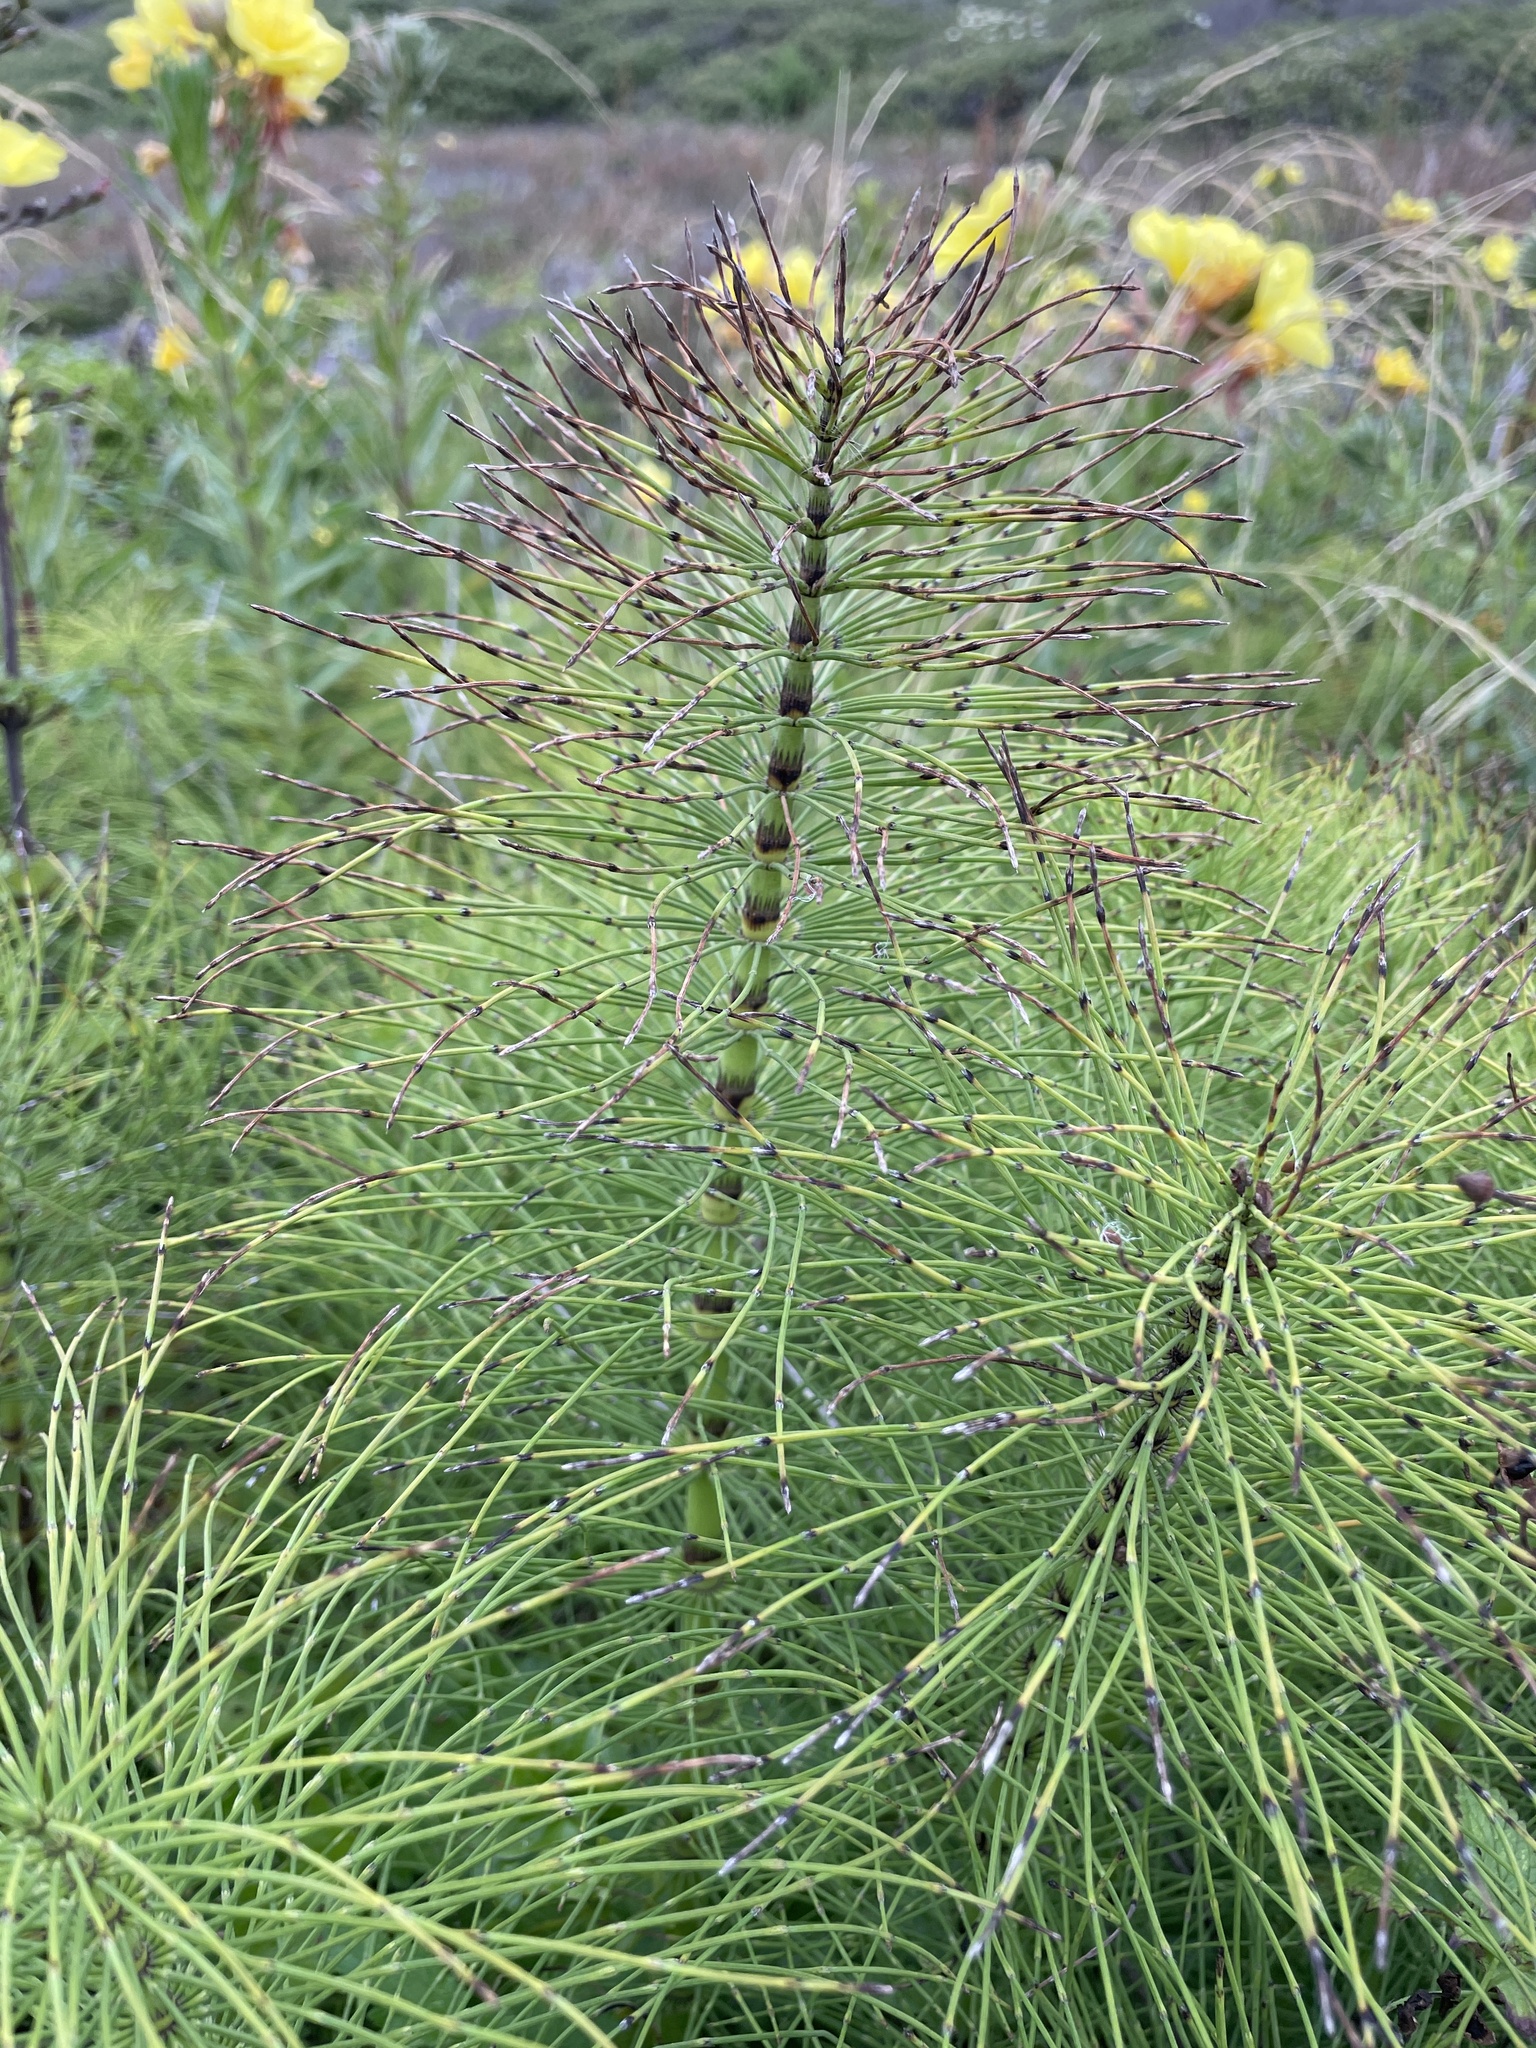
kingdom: Plantae
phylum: Tracheophyta
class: Polypodiopsida
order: Equisetales
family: Equisetaceae
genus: Equisetum
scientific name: Equisetum braunii
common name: Braun's horsetail
